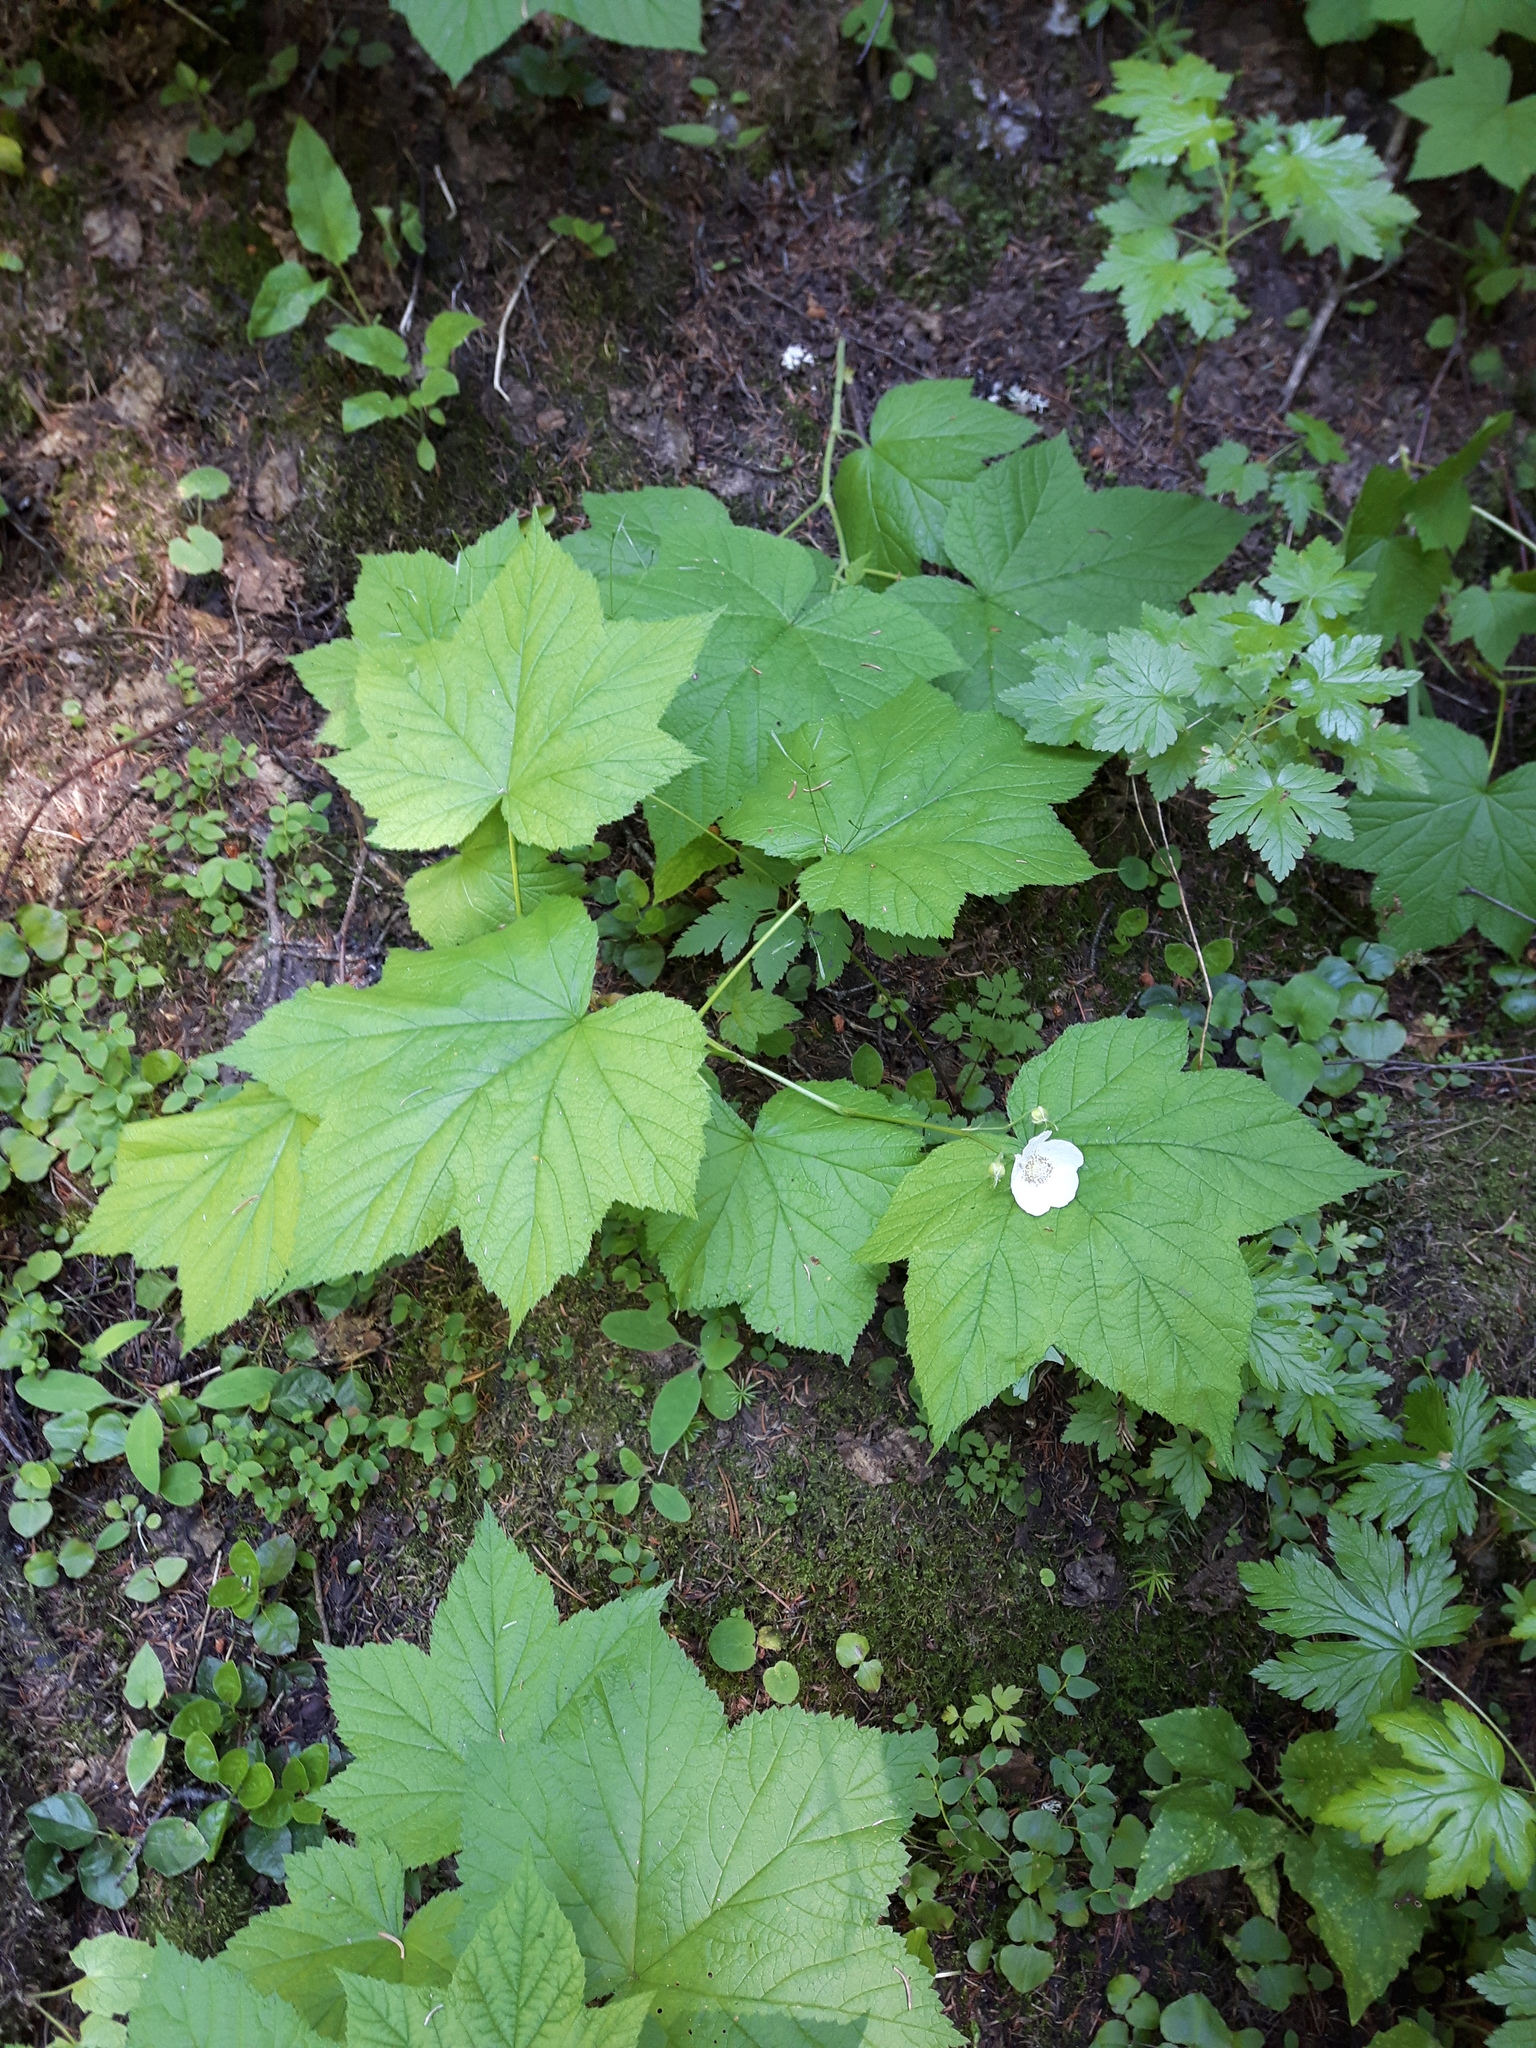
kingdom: Plantae
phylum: Tracheophyta
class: Magnoliopsida
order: Rosales
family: Rosaceae
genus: Rubus
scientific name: Rubus parviflorus
